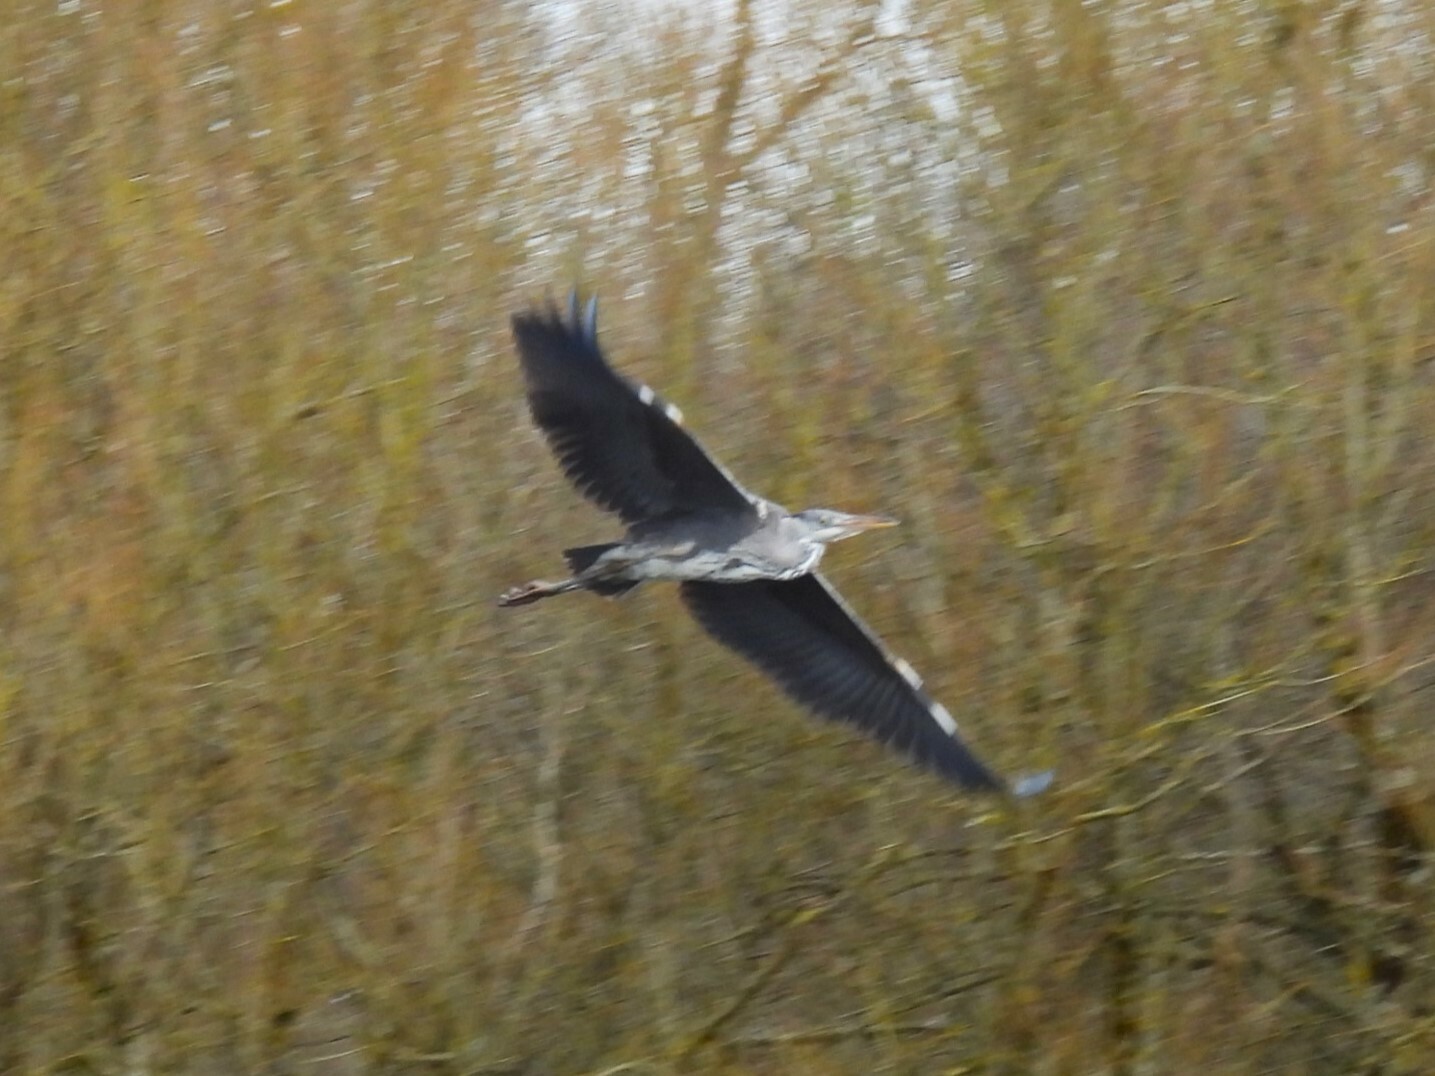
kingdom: Animalia
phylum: Chordata
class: Aves
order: Pelecaniformes
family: Ardeidae
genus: Ardea
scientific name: Ardea cinerea
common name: Grey heron
